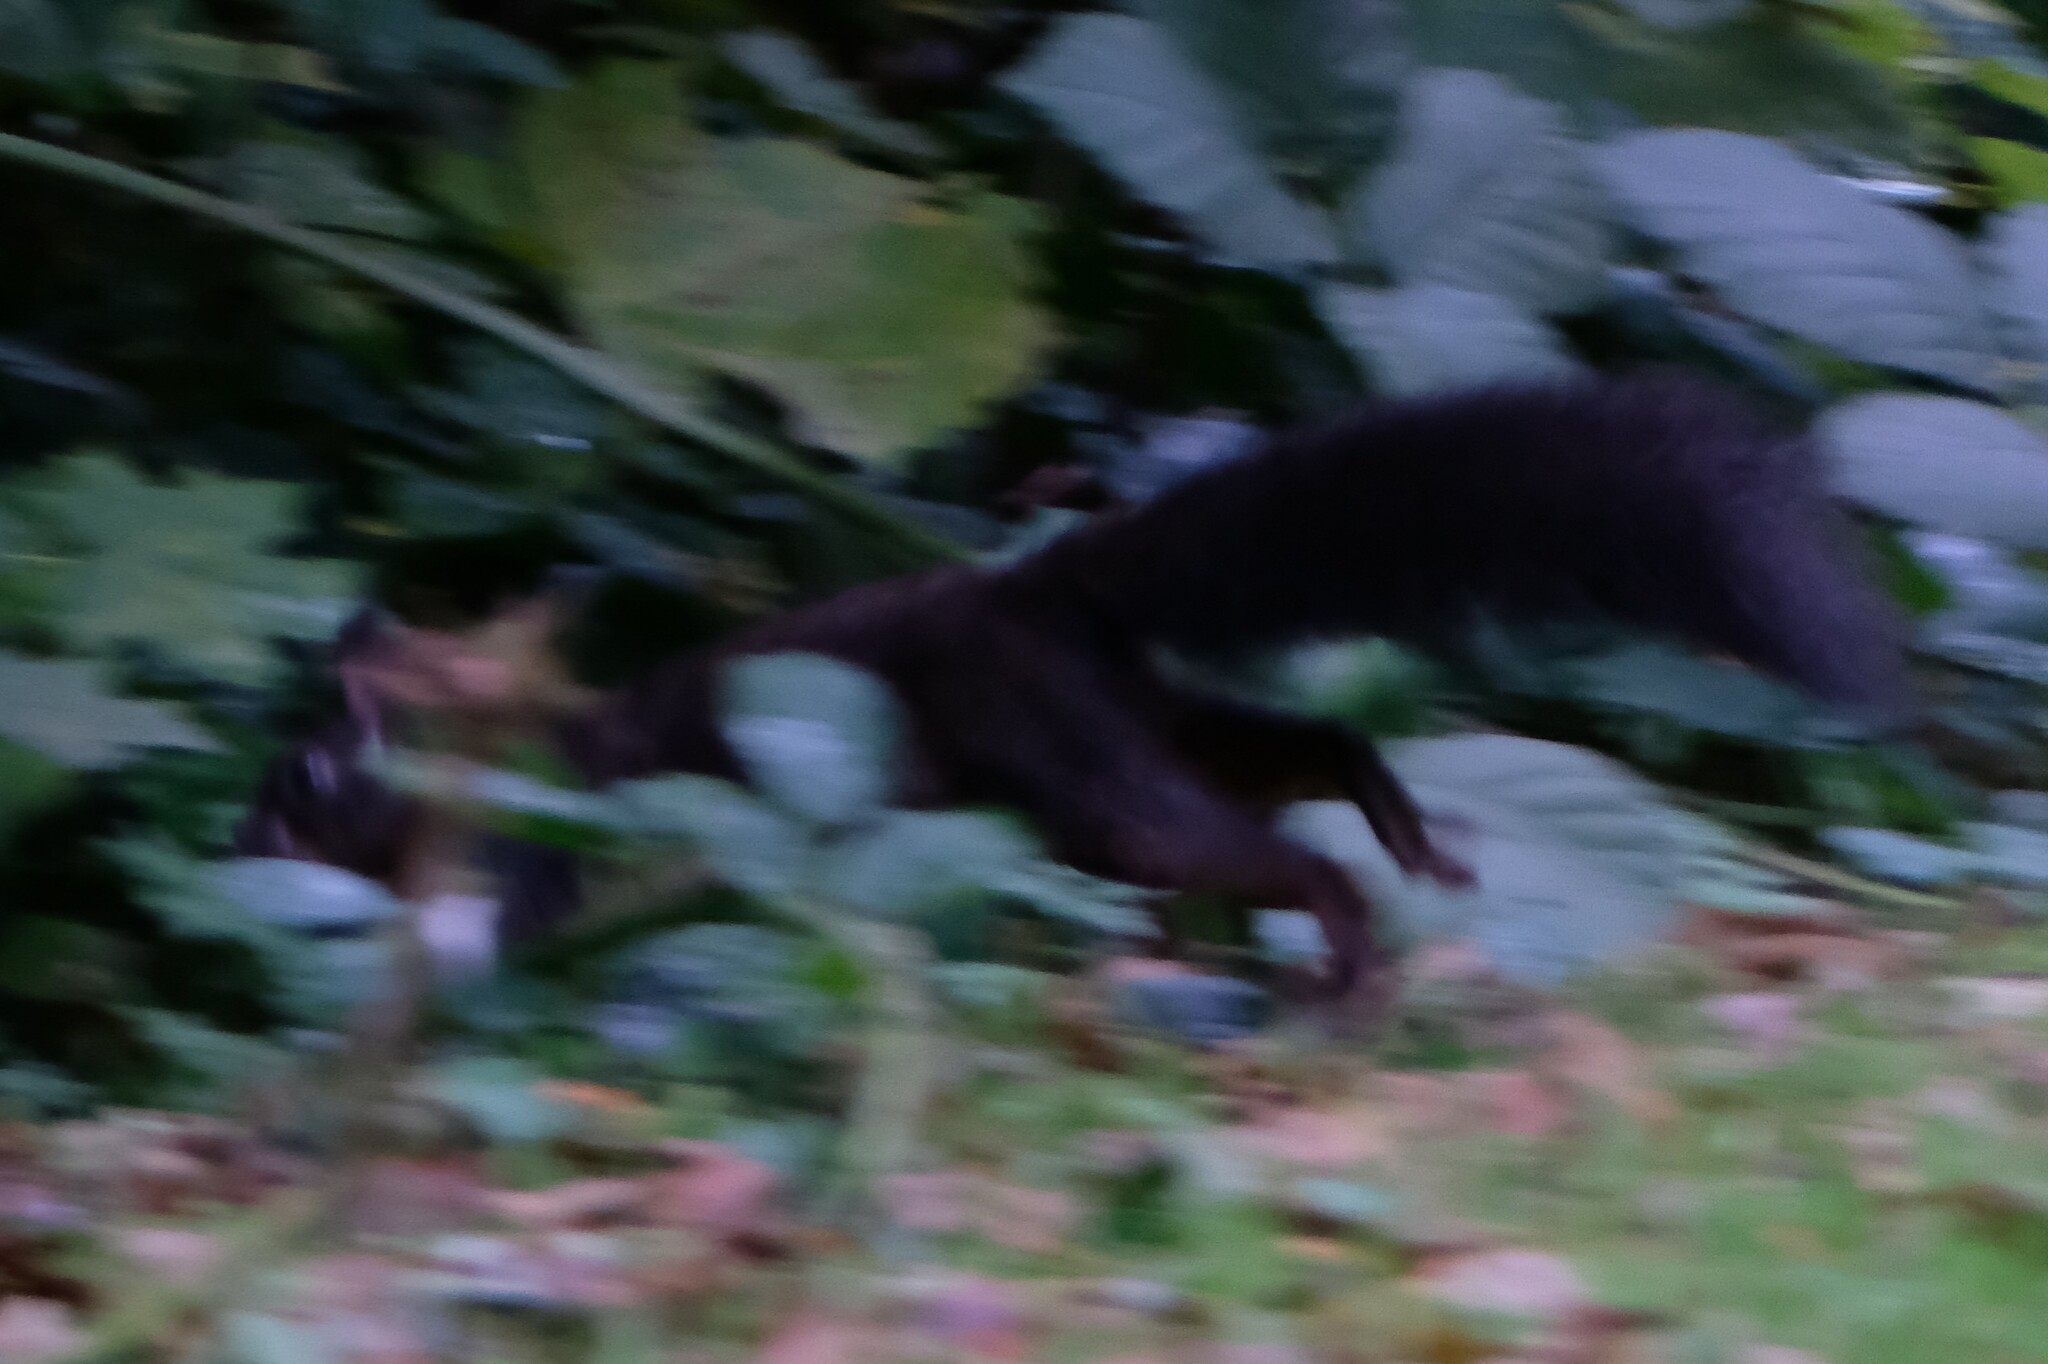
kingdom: Animalia
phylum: Chordata
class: Mammalia
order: Rodentia
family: Sciuridae
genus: Sciurus
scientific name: Sciurus vulgaris
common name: Eurasian red squirrel
